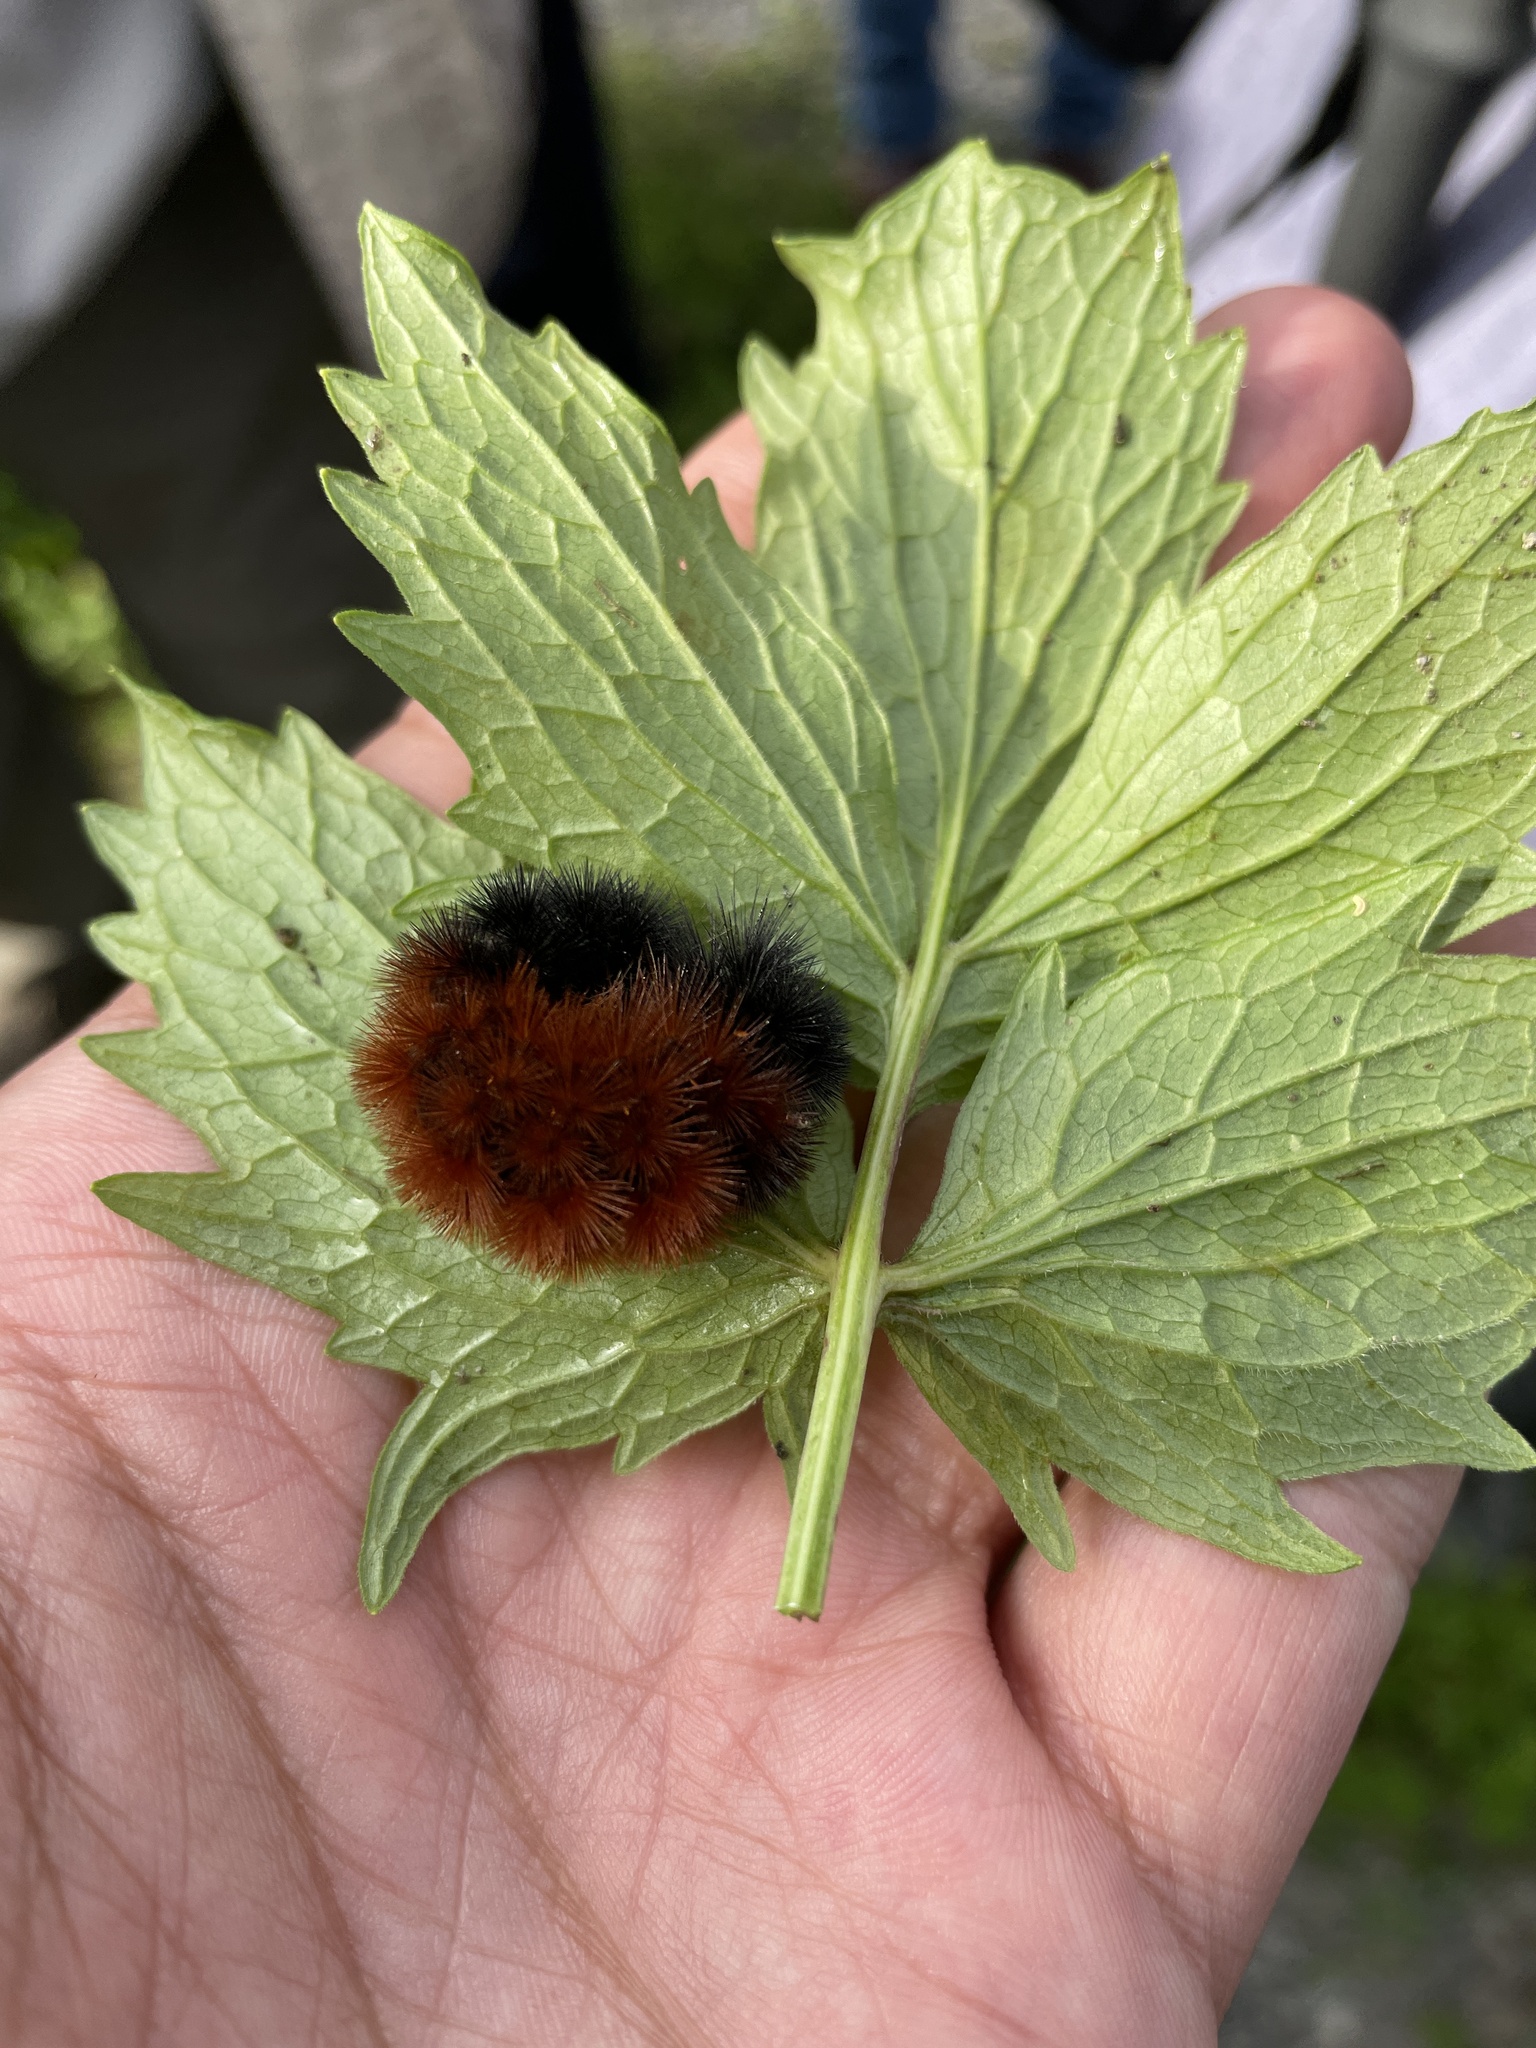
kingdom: Animalia
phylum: Arthropoda
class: Insecta
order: Lepidoptera
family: Erebidae
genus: Pyrrharctia
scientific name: Pyrrharctia isabella
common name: Isabella tiger moth
